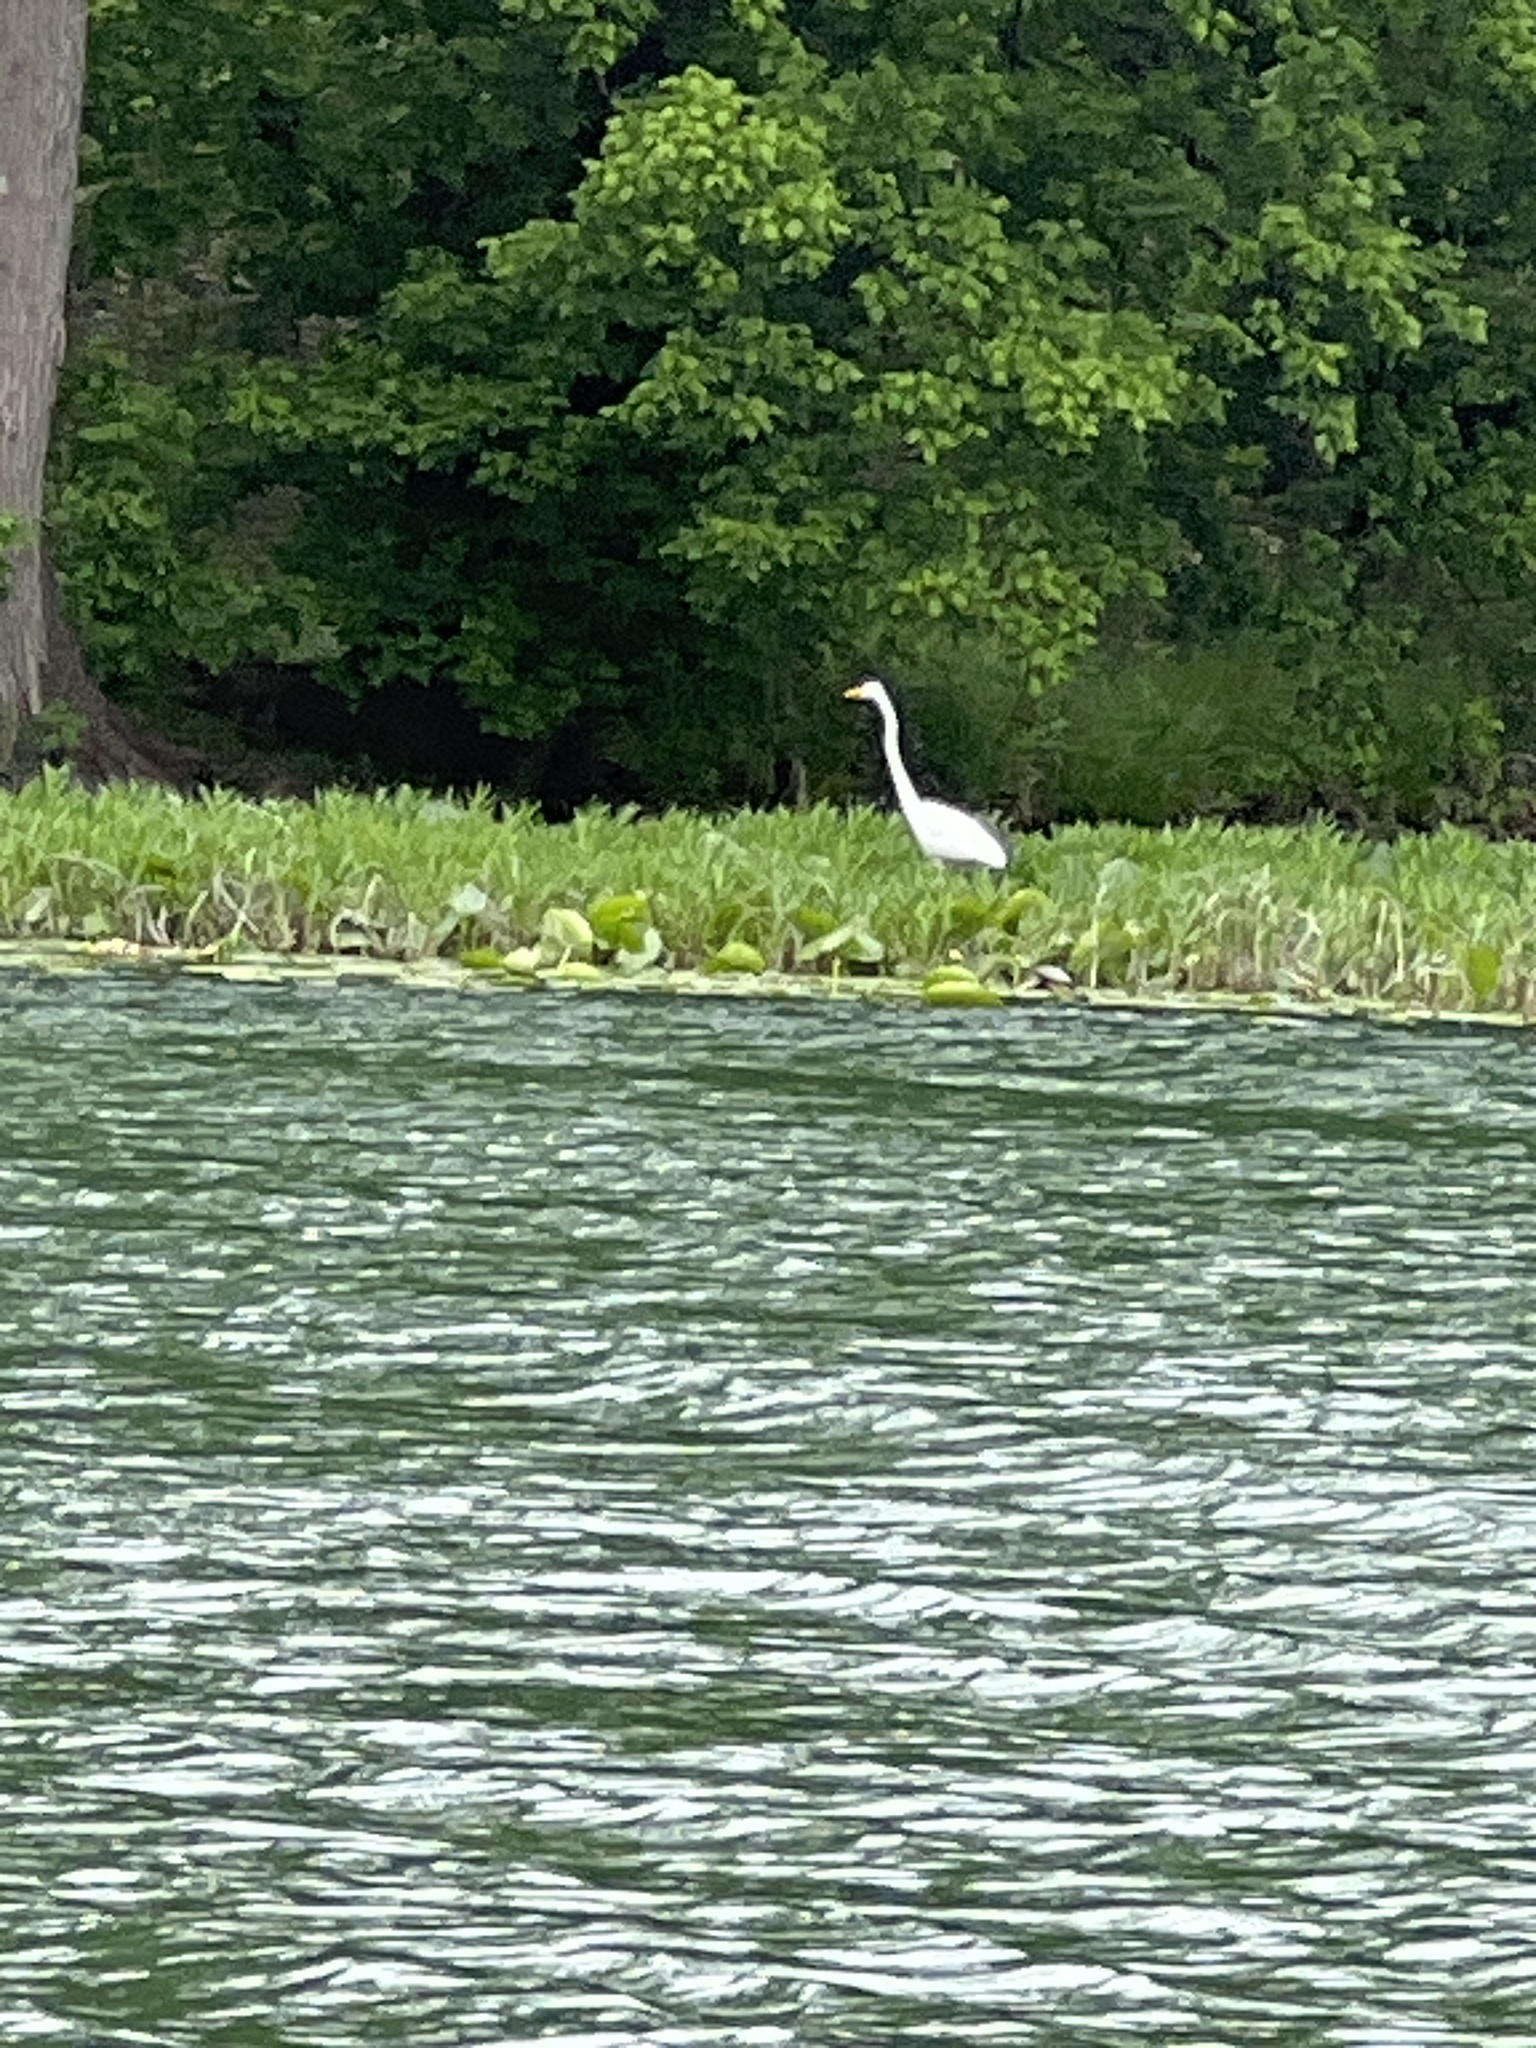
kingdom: Animalia
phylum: Chordata
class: Aves
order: Pelecaniformes
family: Ardeidae
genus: Ardea
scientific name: Ardea alba
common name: Great egret
